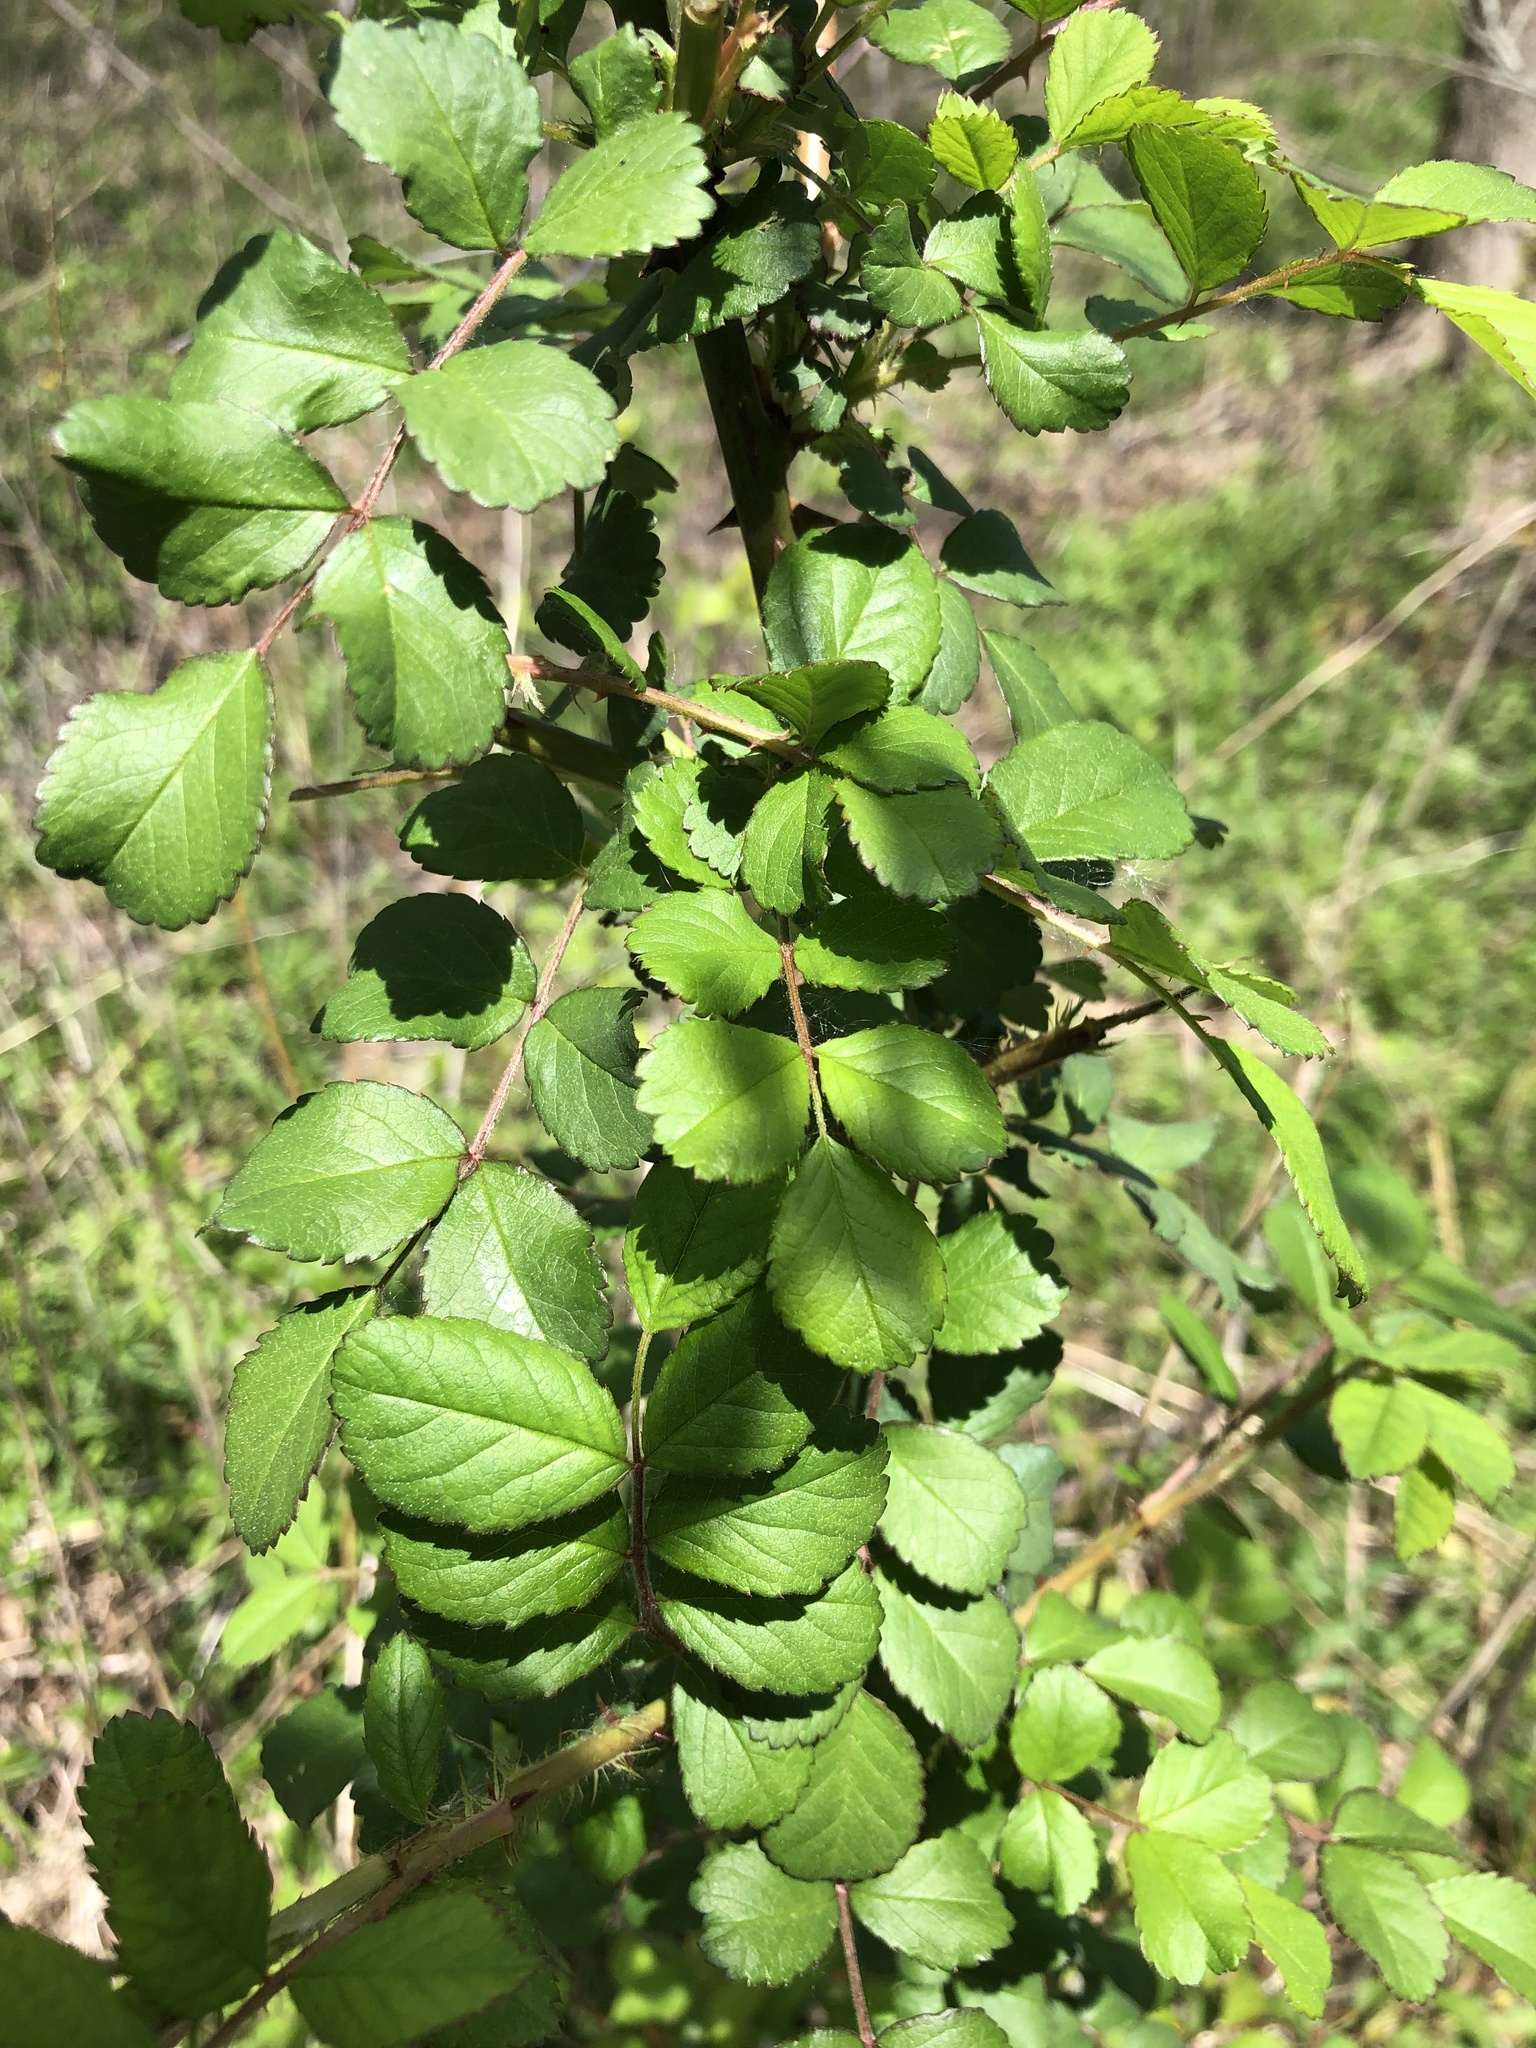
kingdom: Plantae
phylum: Tracheophyta
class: Magnoliopsida
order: Rosales
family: Rosaceae
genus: Rosa
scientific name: Rosa multiflora
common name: Multiflora rose
